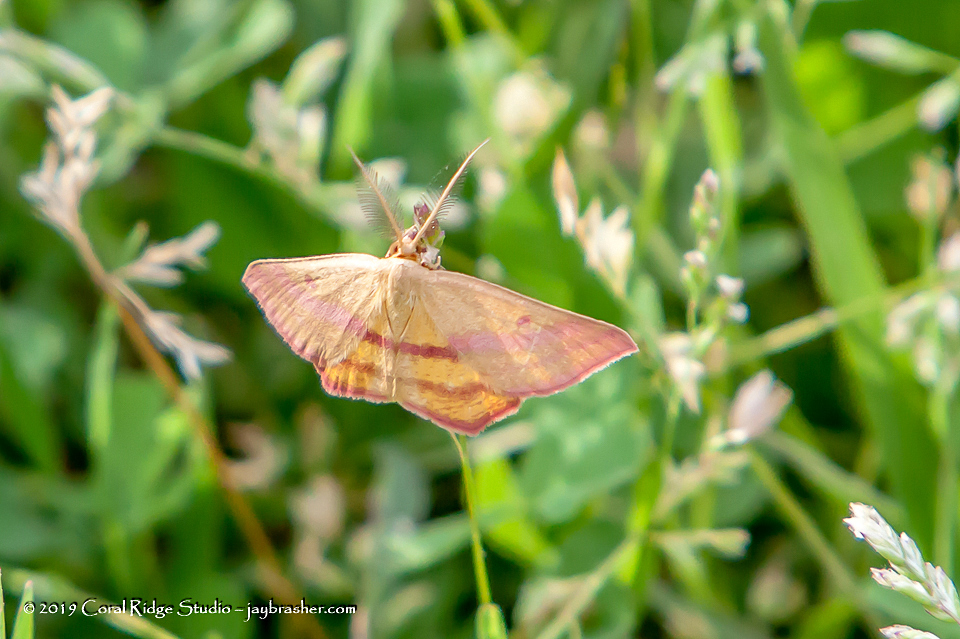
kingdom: Animalia
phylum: Arthropoda
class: Insecta
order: Lepidoptera
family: Geometridae
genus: Haematopis
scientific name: Haematopis grataria
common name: Chickweed geometer
